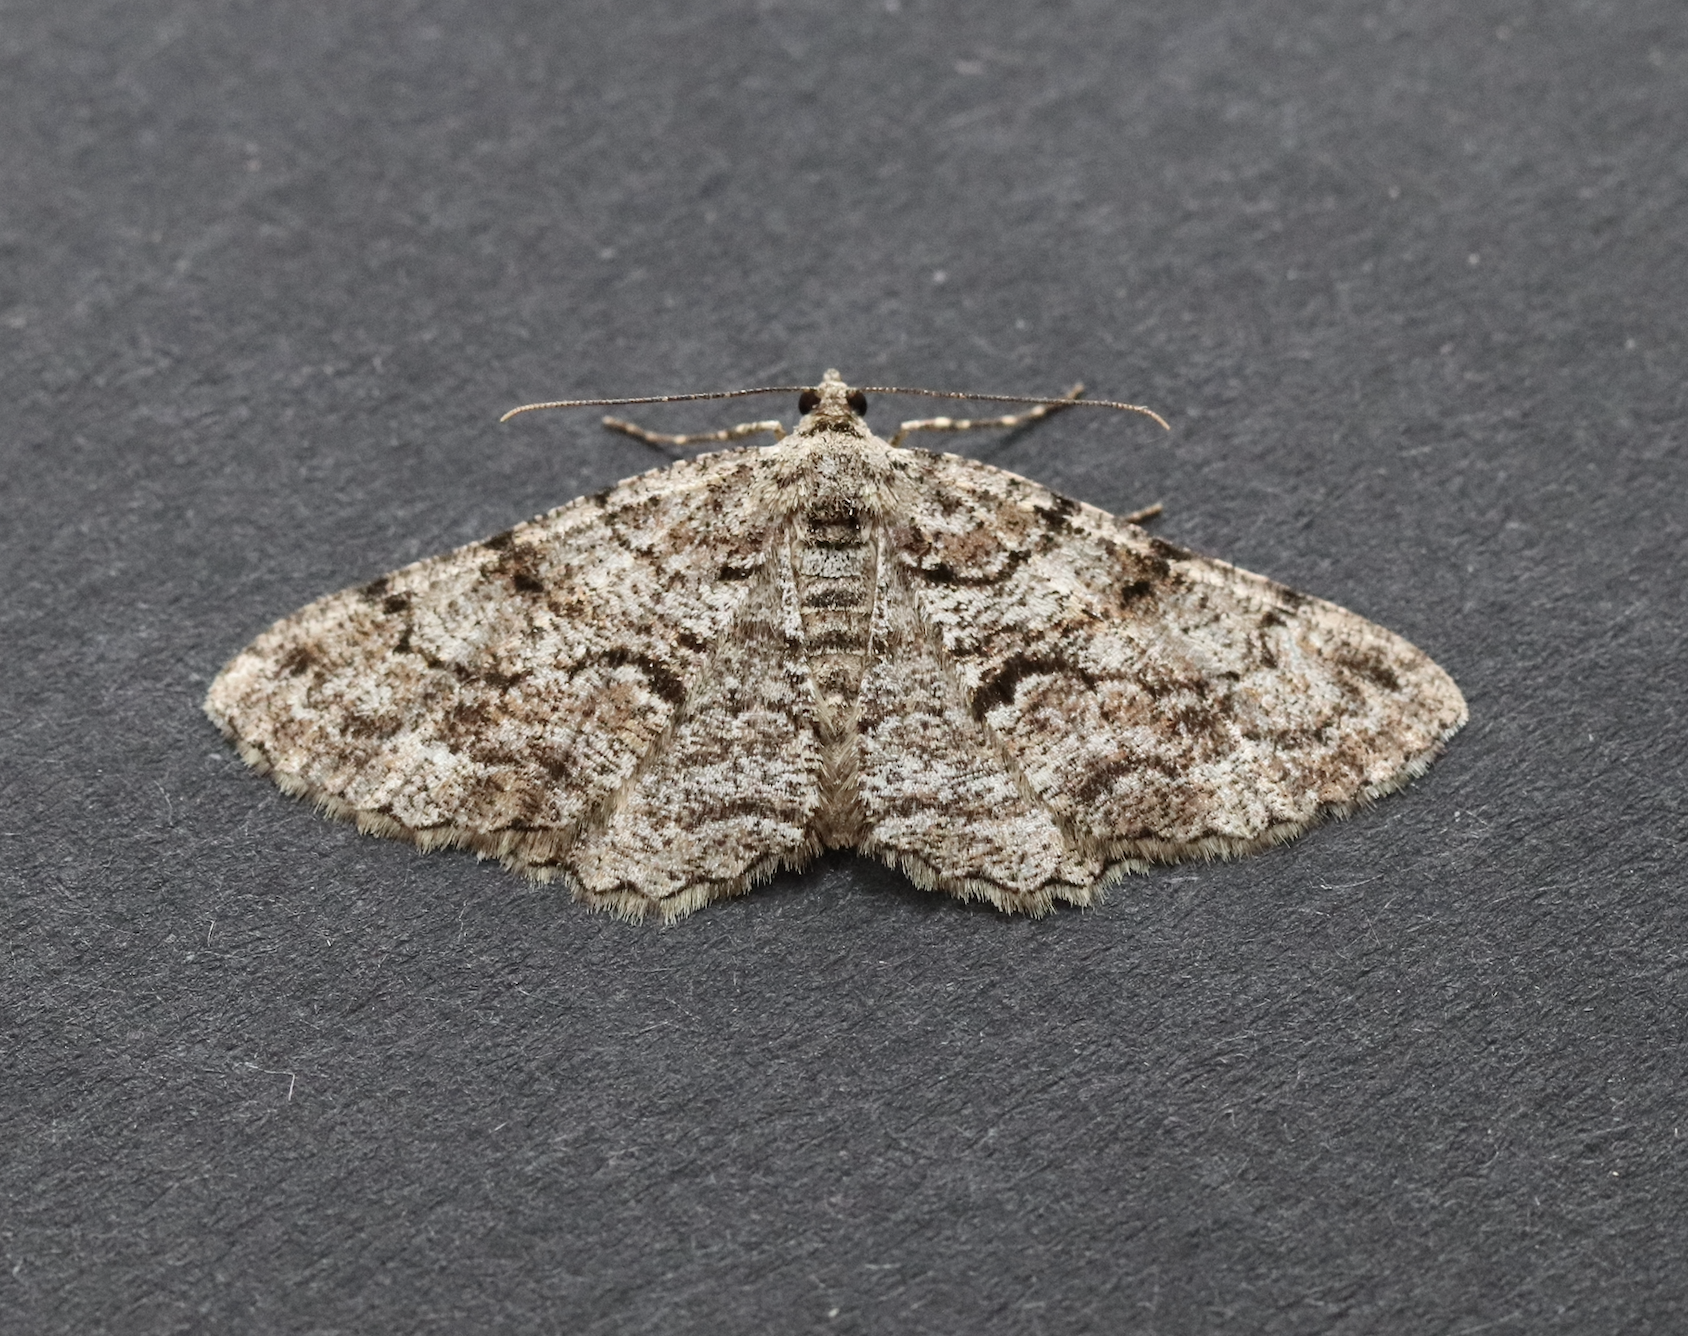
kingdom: Animalia
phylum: Arthropoda
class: Insecta
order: Lepidoptera
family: Geometridae
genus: Peribatodes
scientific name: Peribatodes secundaria
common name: Feathered beauty
